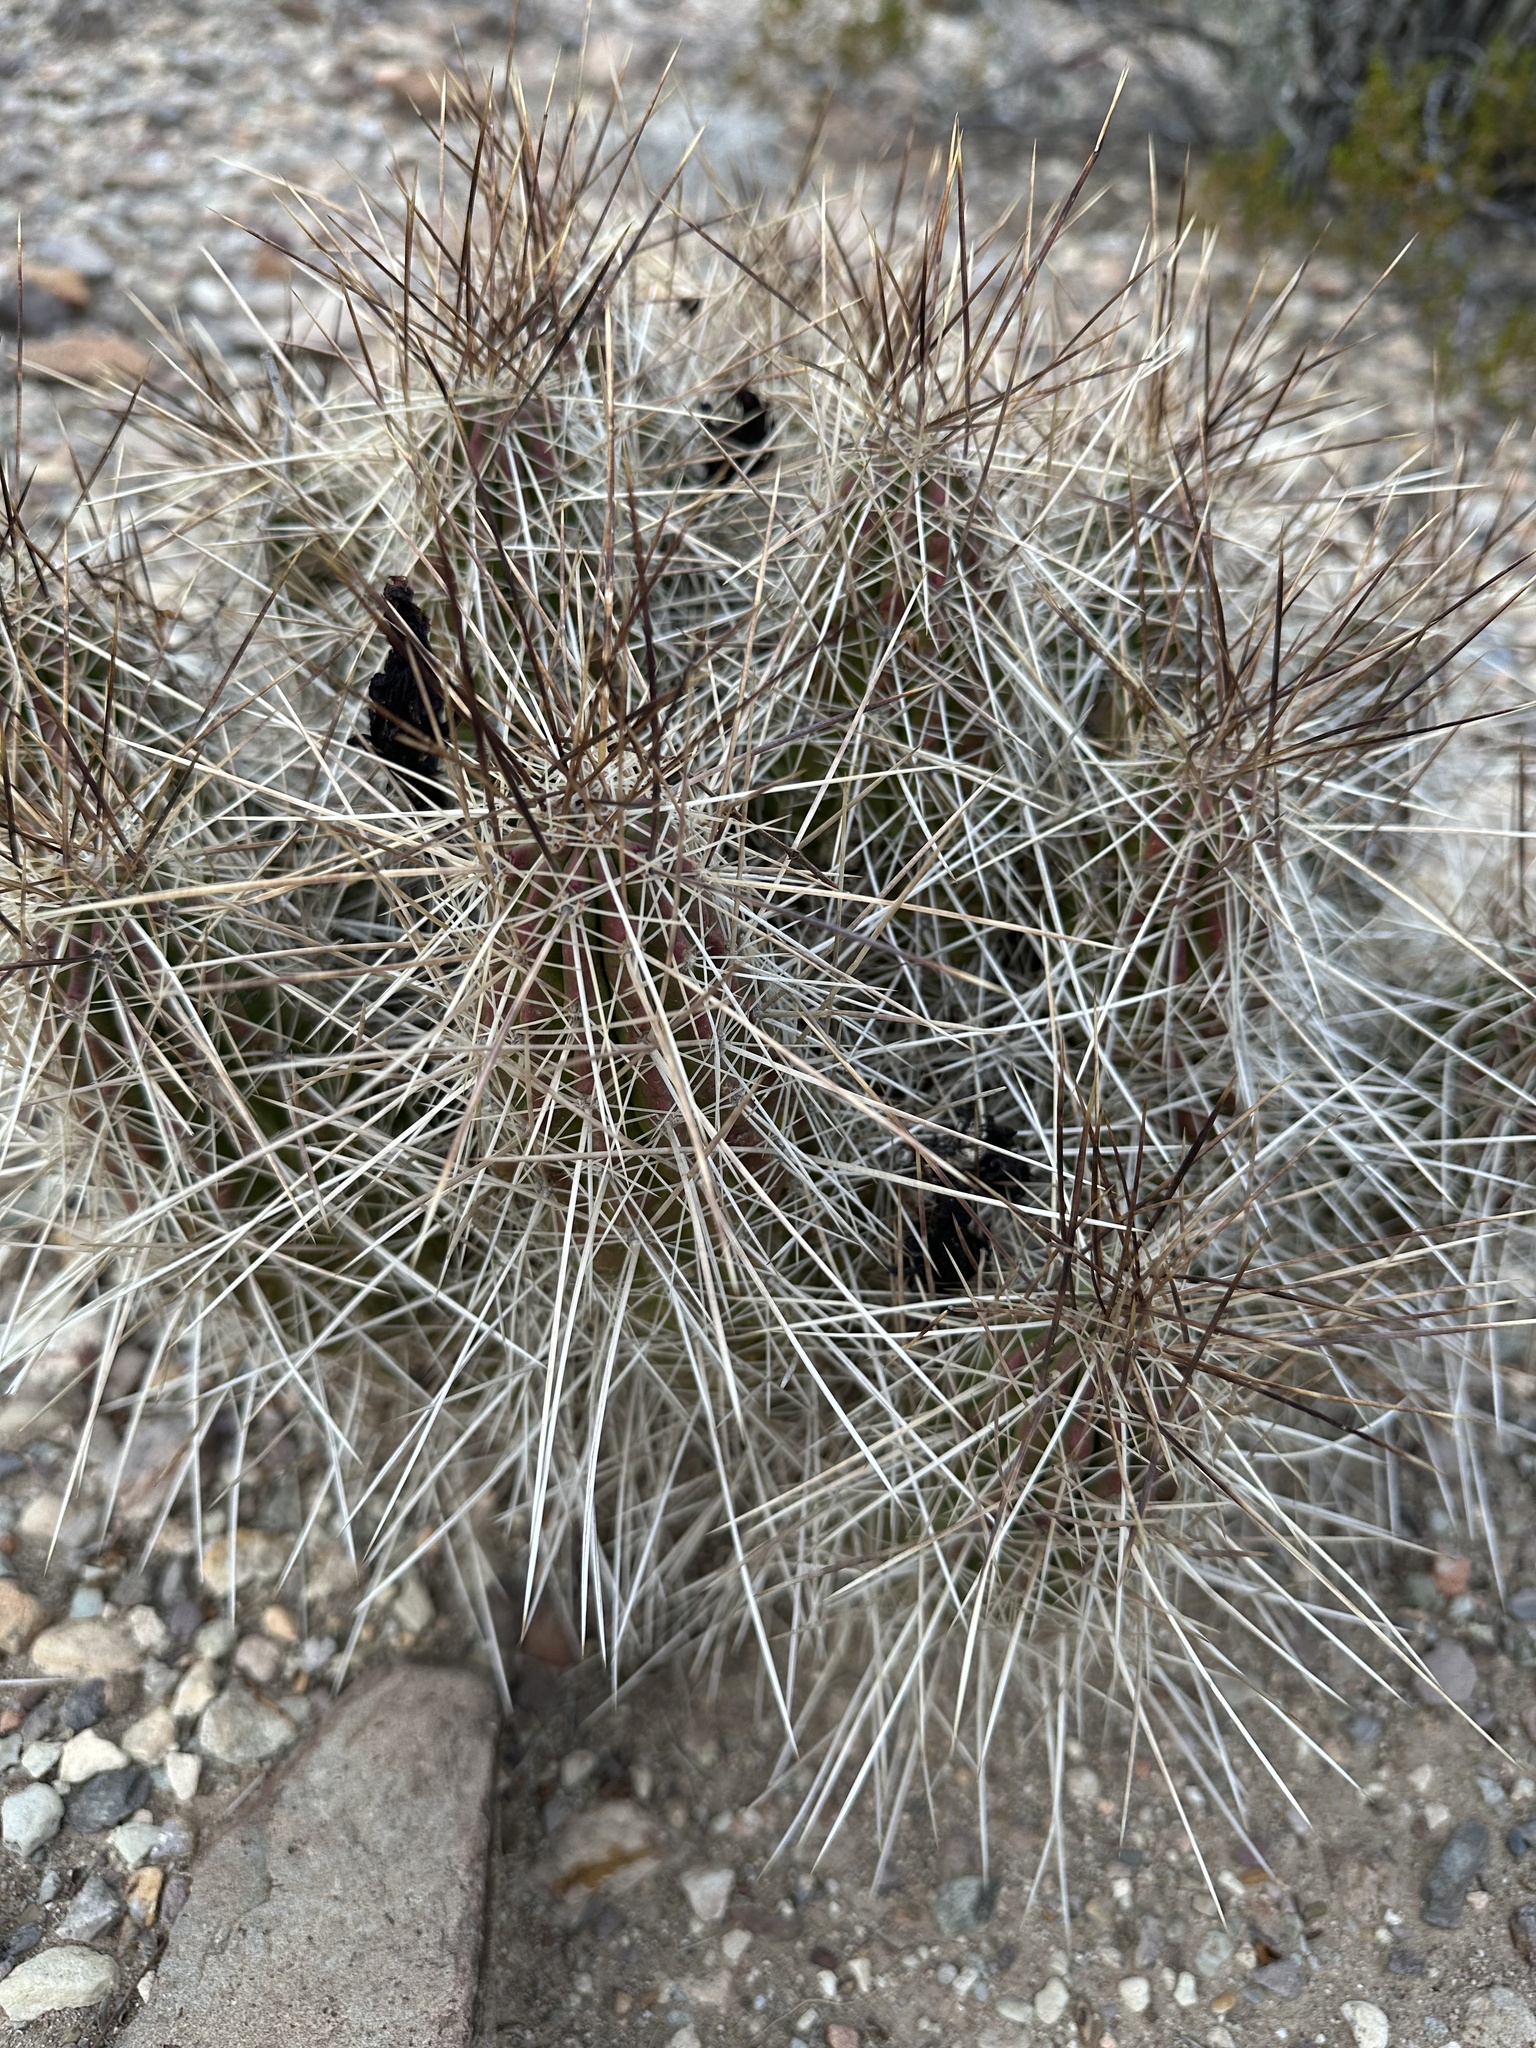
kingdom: Plantae
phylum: Tracheophyta
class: Magnoliopsida
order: Caryophyllales
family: Cactaceae
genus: Echinocereus
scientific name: Echinocereus stramineus
